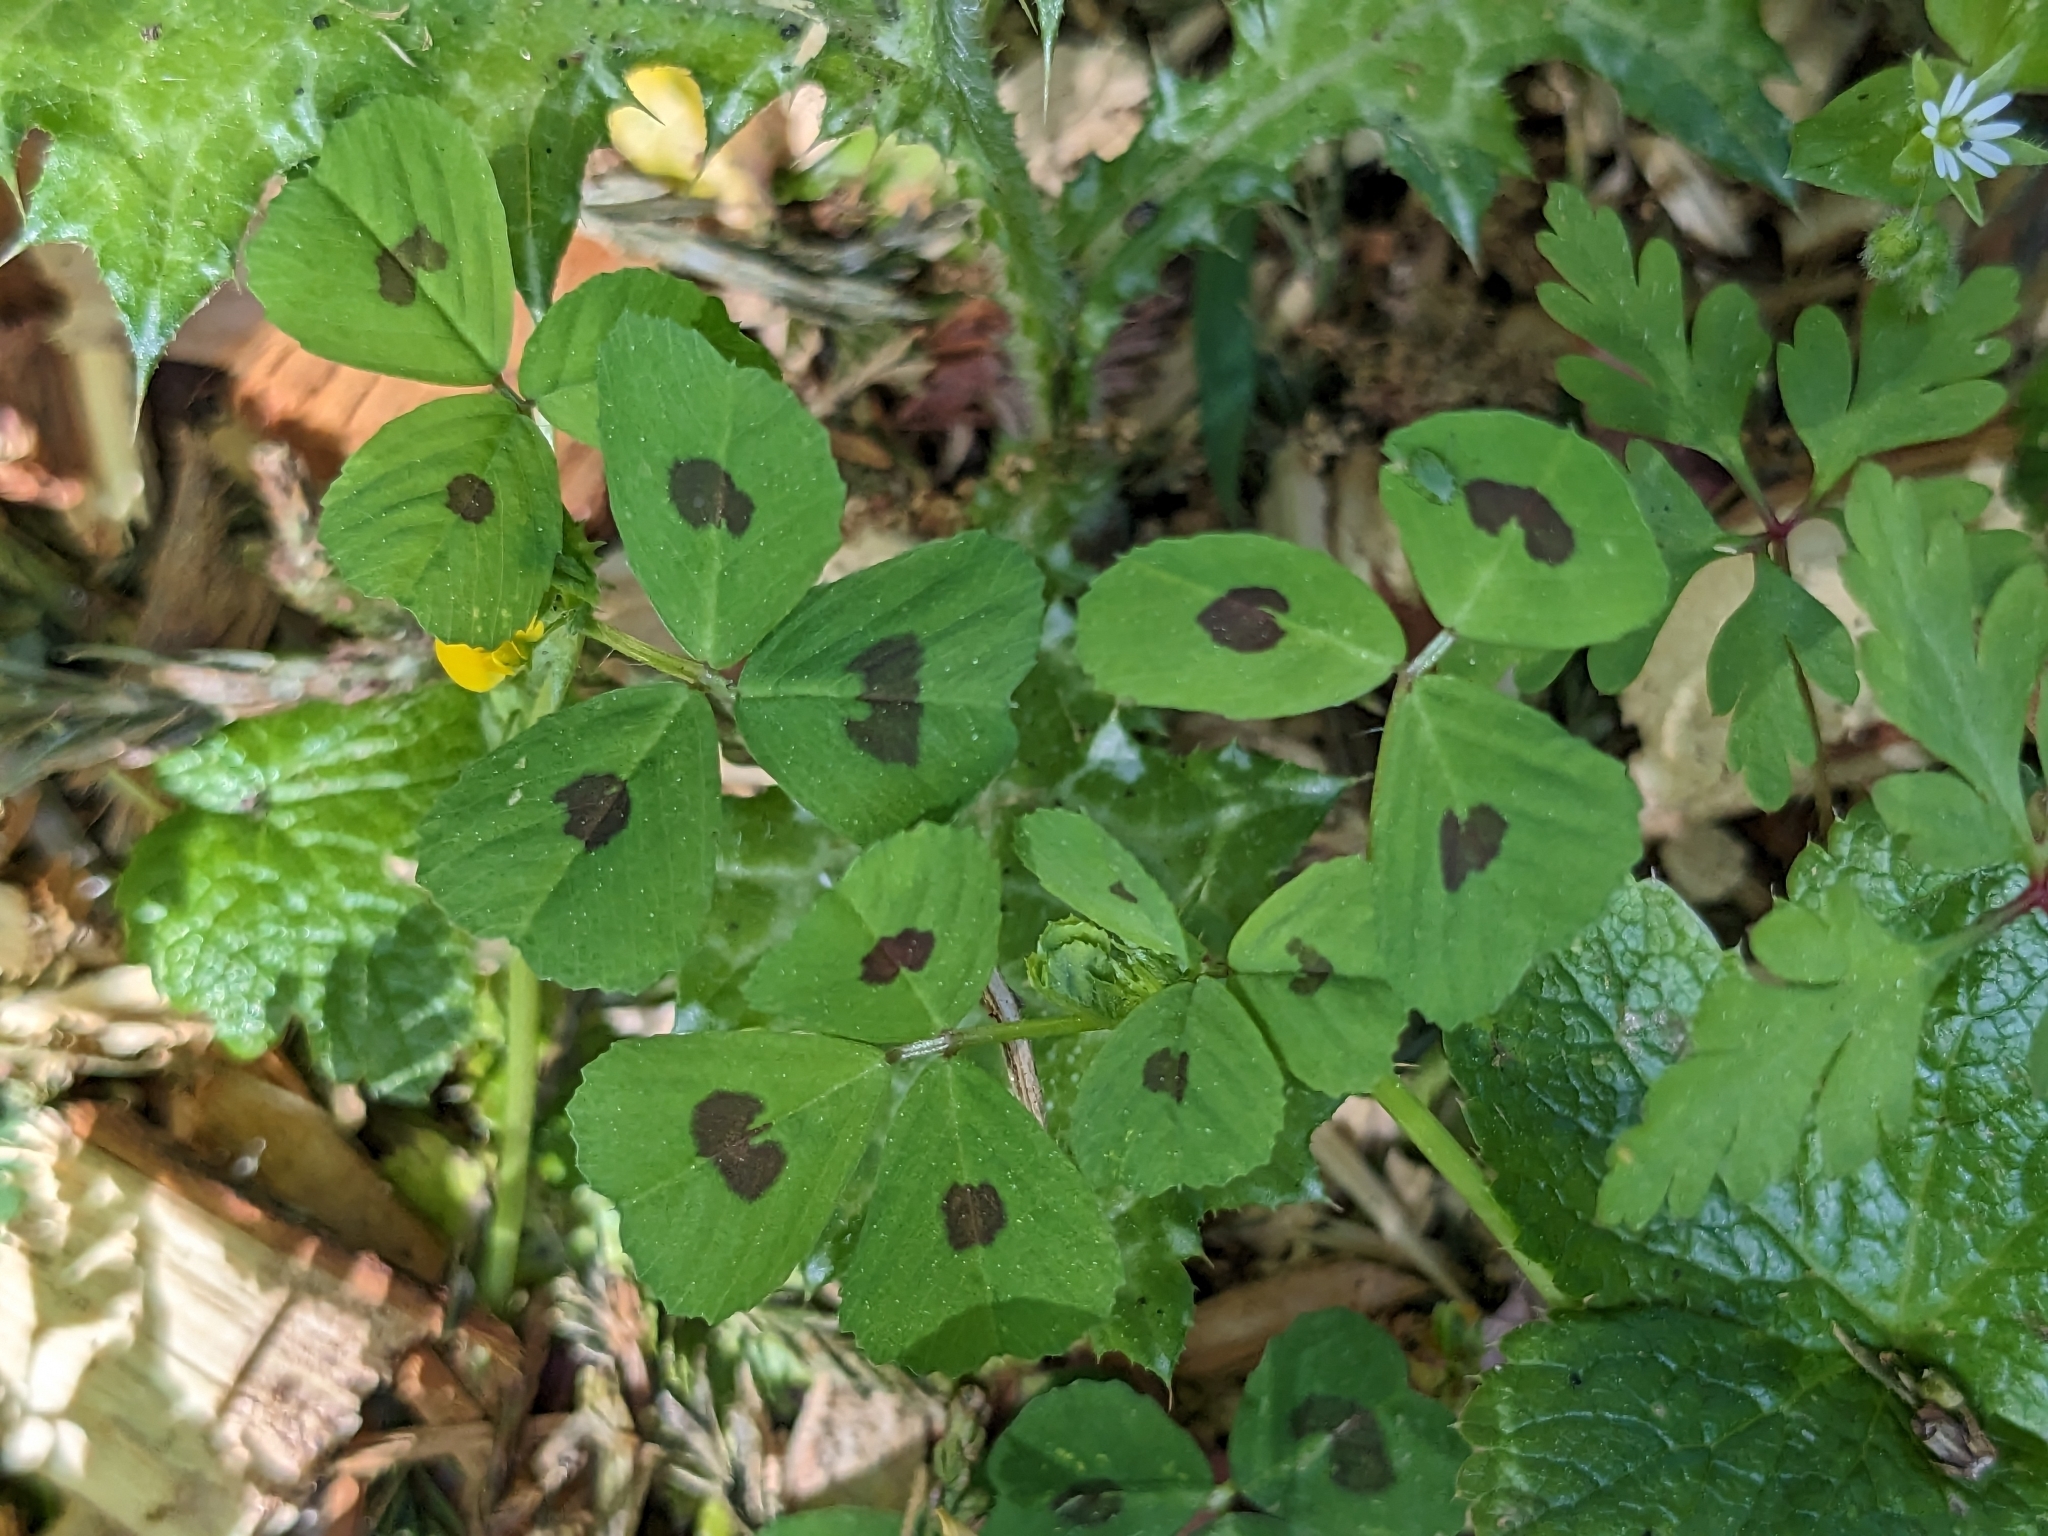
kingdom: Plantae
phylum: Tracheophyta
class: Magnoliopsida
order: Fabales
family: Fabaceae
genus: Medicago
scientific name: Medicago arabica
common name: Spotted medick
